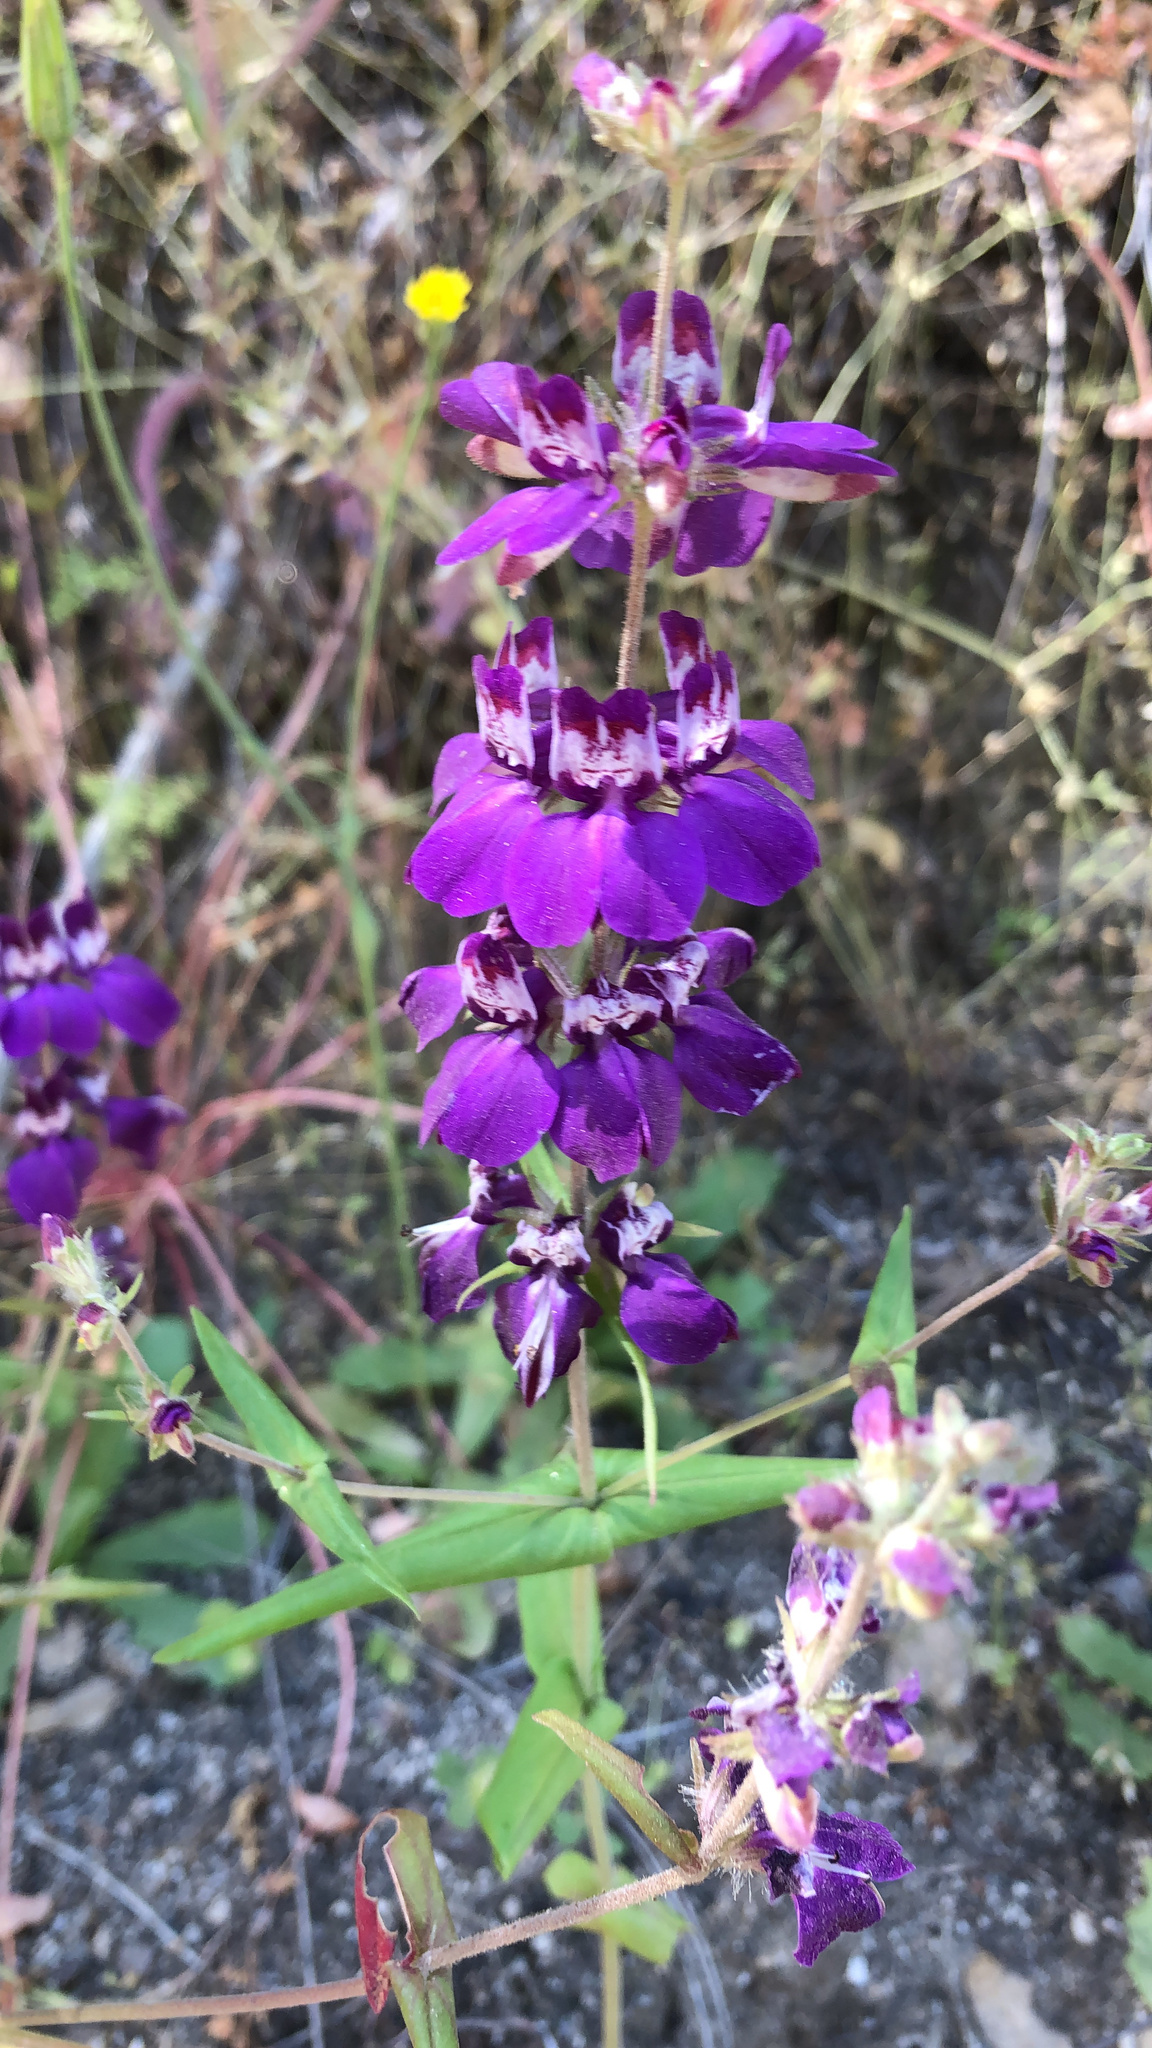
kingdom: Plantae
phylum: Tracheophyta
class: Magnoliopsida
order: Lamiales
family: Plantaginaceae
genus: Collinsia
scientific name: Collinsia heterophylla
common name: Chinese-houses
